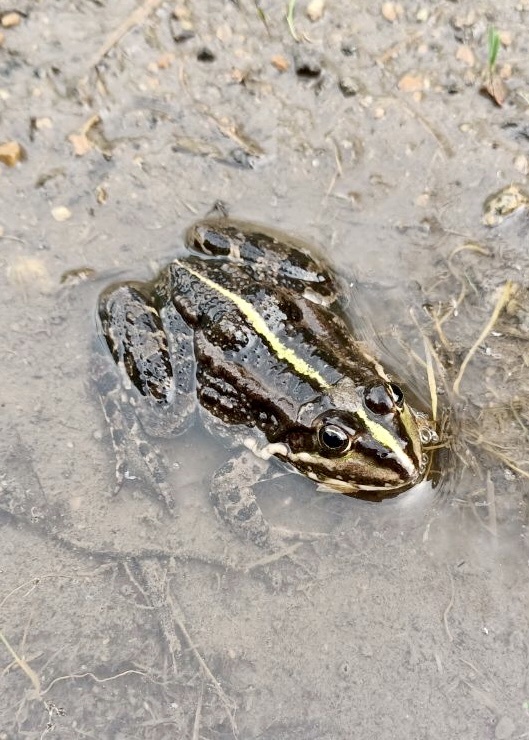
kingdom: Animalia
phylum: Chordata
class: Amphibia
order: Anura
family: Ranidae
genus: Pelophylax
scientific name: Pelophylax ridibundus
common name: Marsh frog
